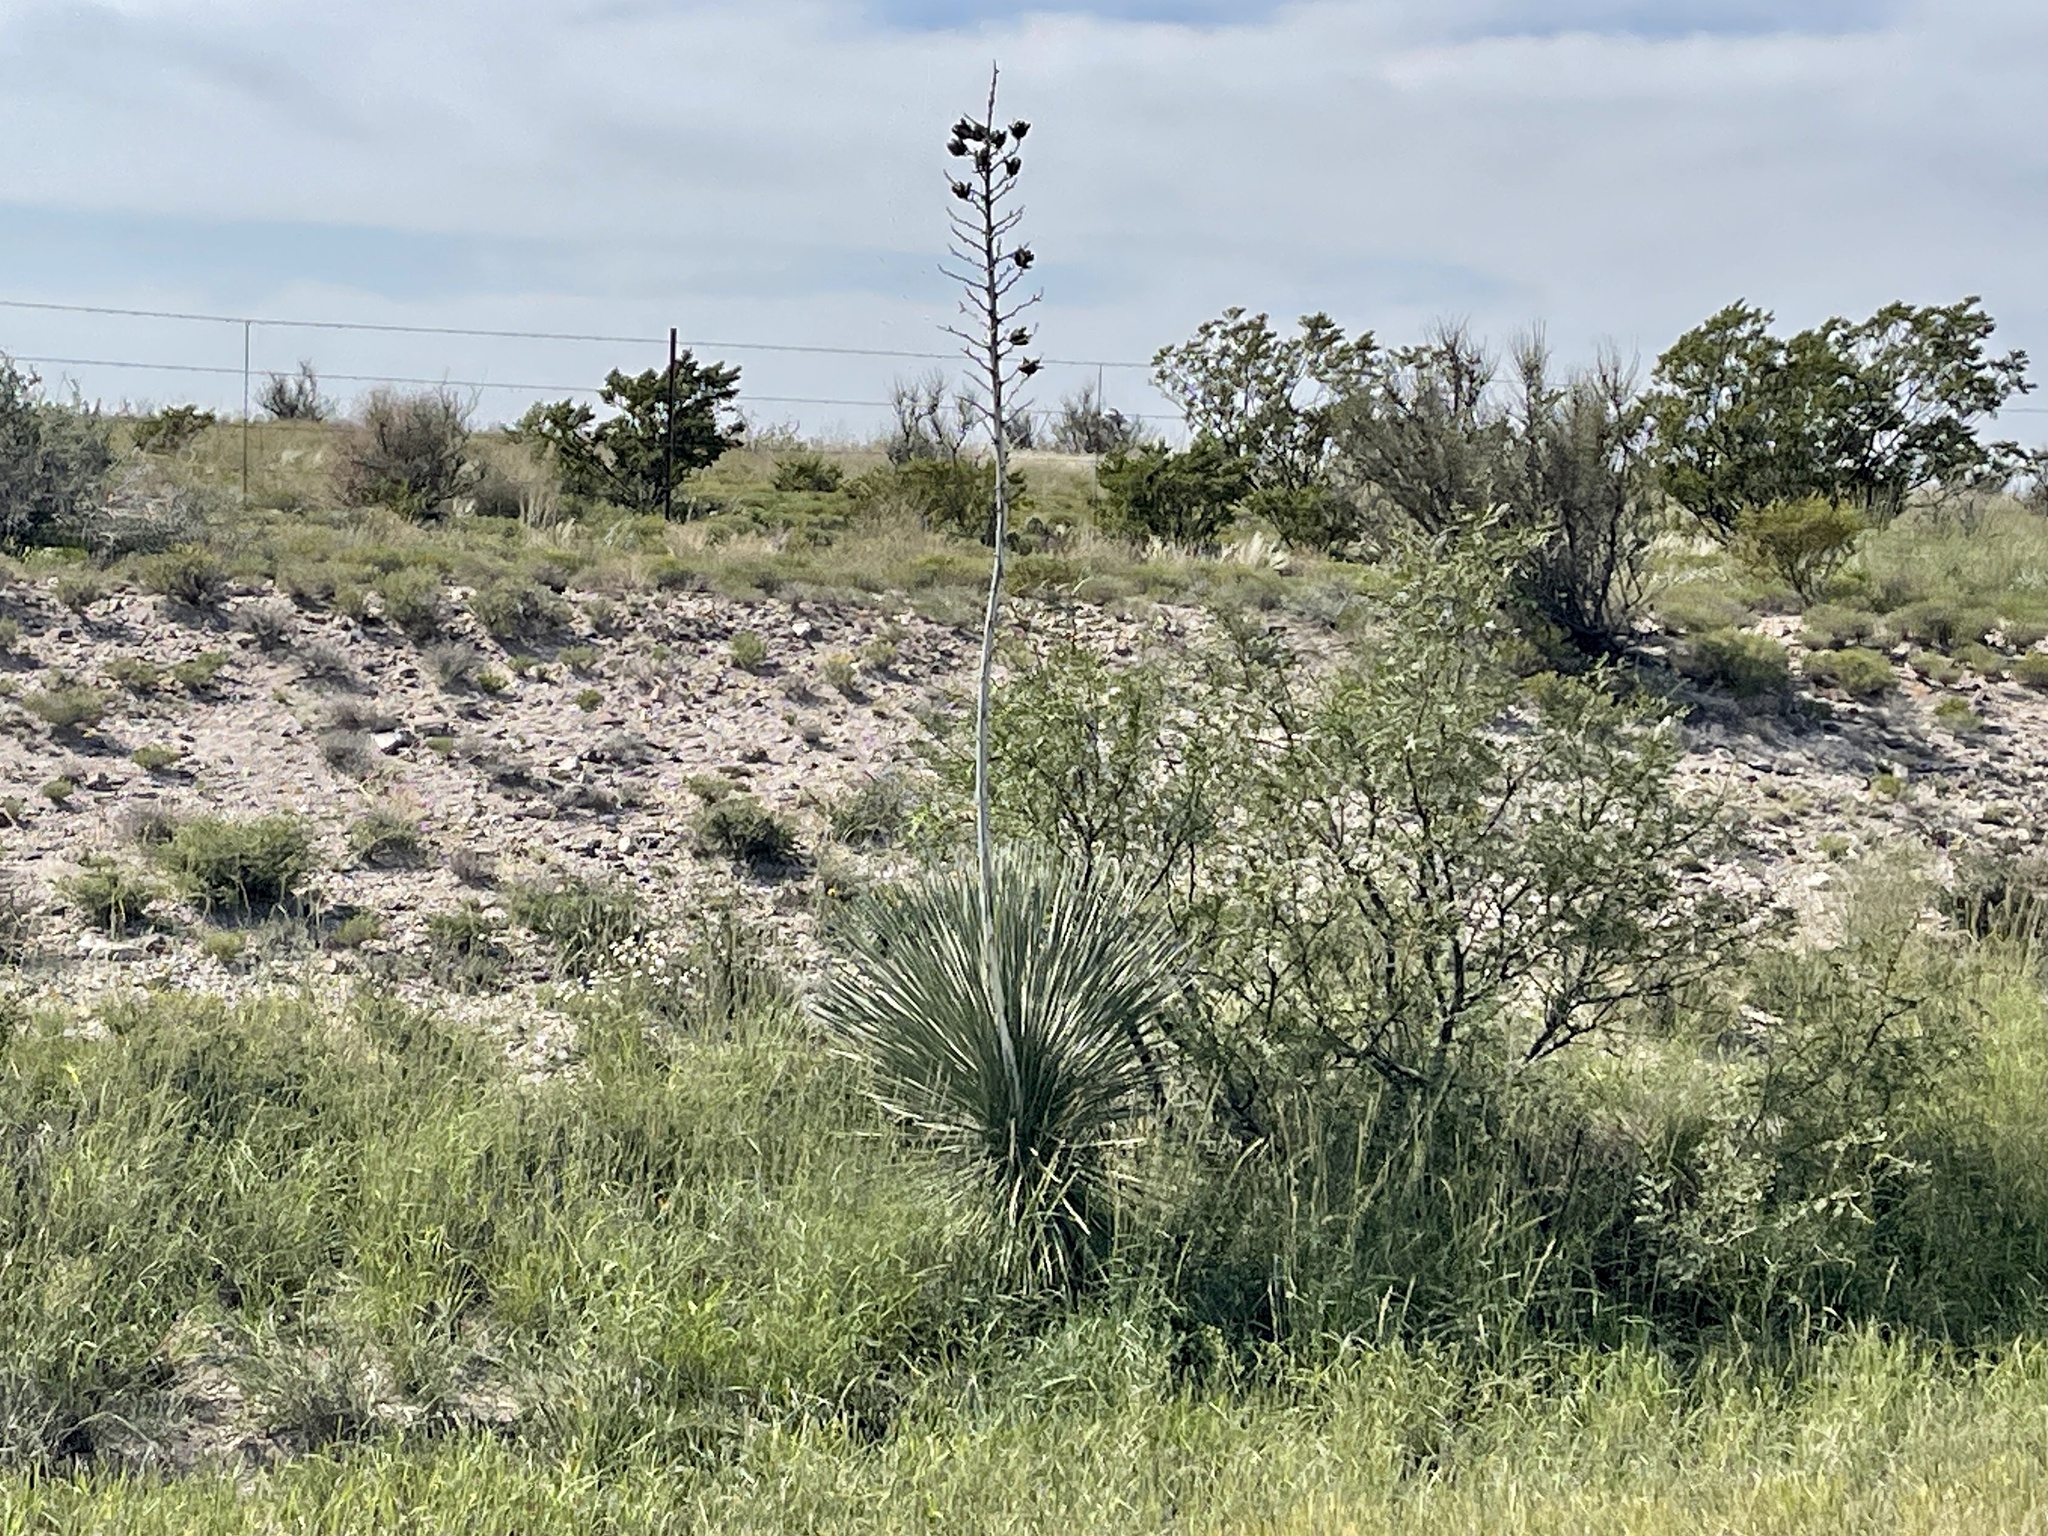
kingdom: Plantae
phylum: Tracheophyta
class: Liliopsida
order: Asparagales
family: Asparagaceae
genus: Yucca
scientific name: Yucca elata
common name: Palmella
